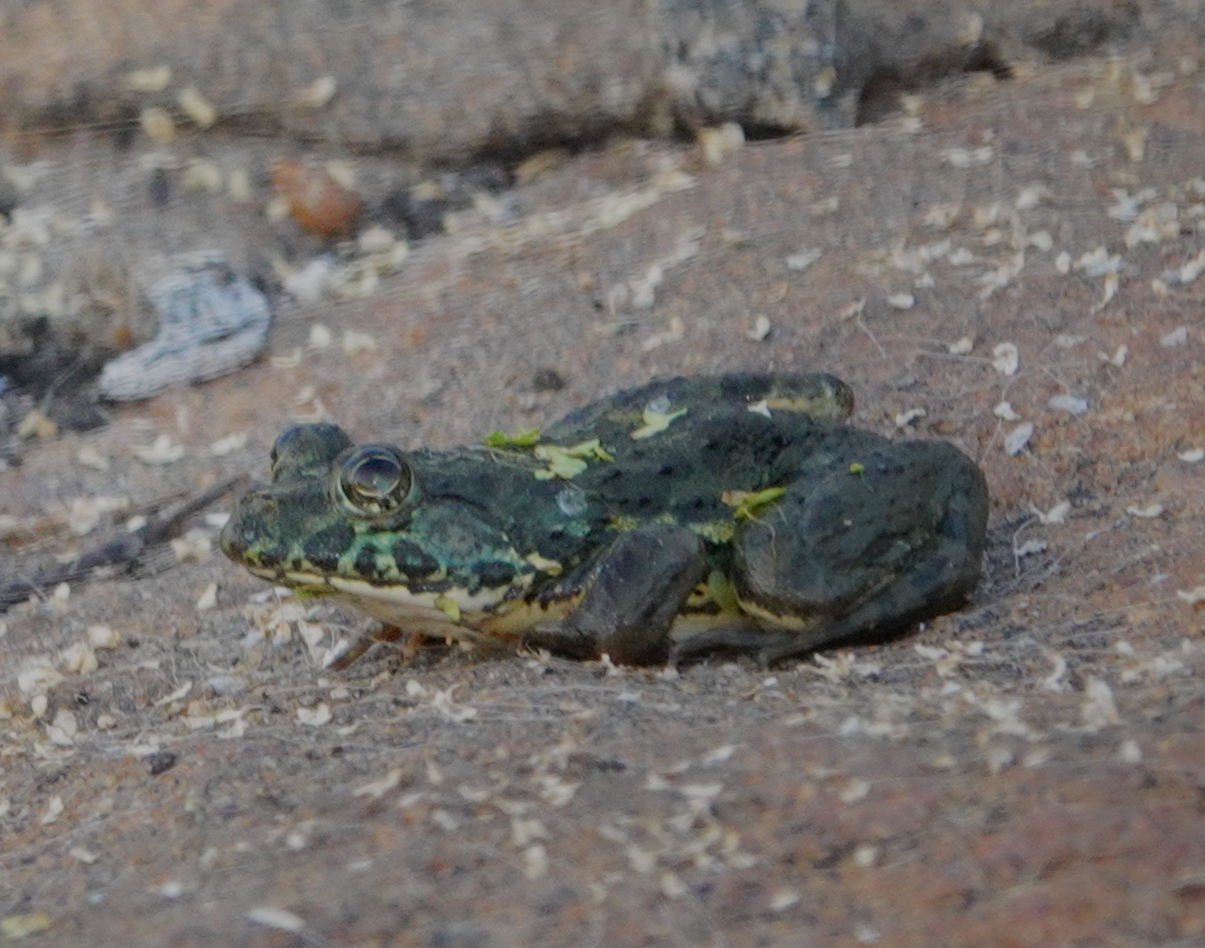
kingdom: Animalia
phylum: Chordata
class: Amphibia
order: Anura
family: Dicroglossidae
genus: Euphlyctis
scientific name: Euphlyctis cyanophlyctis
